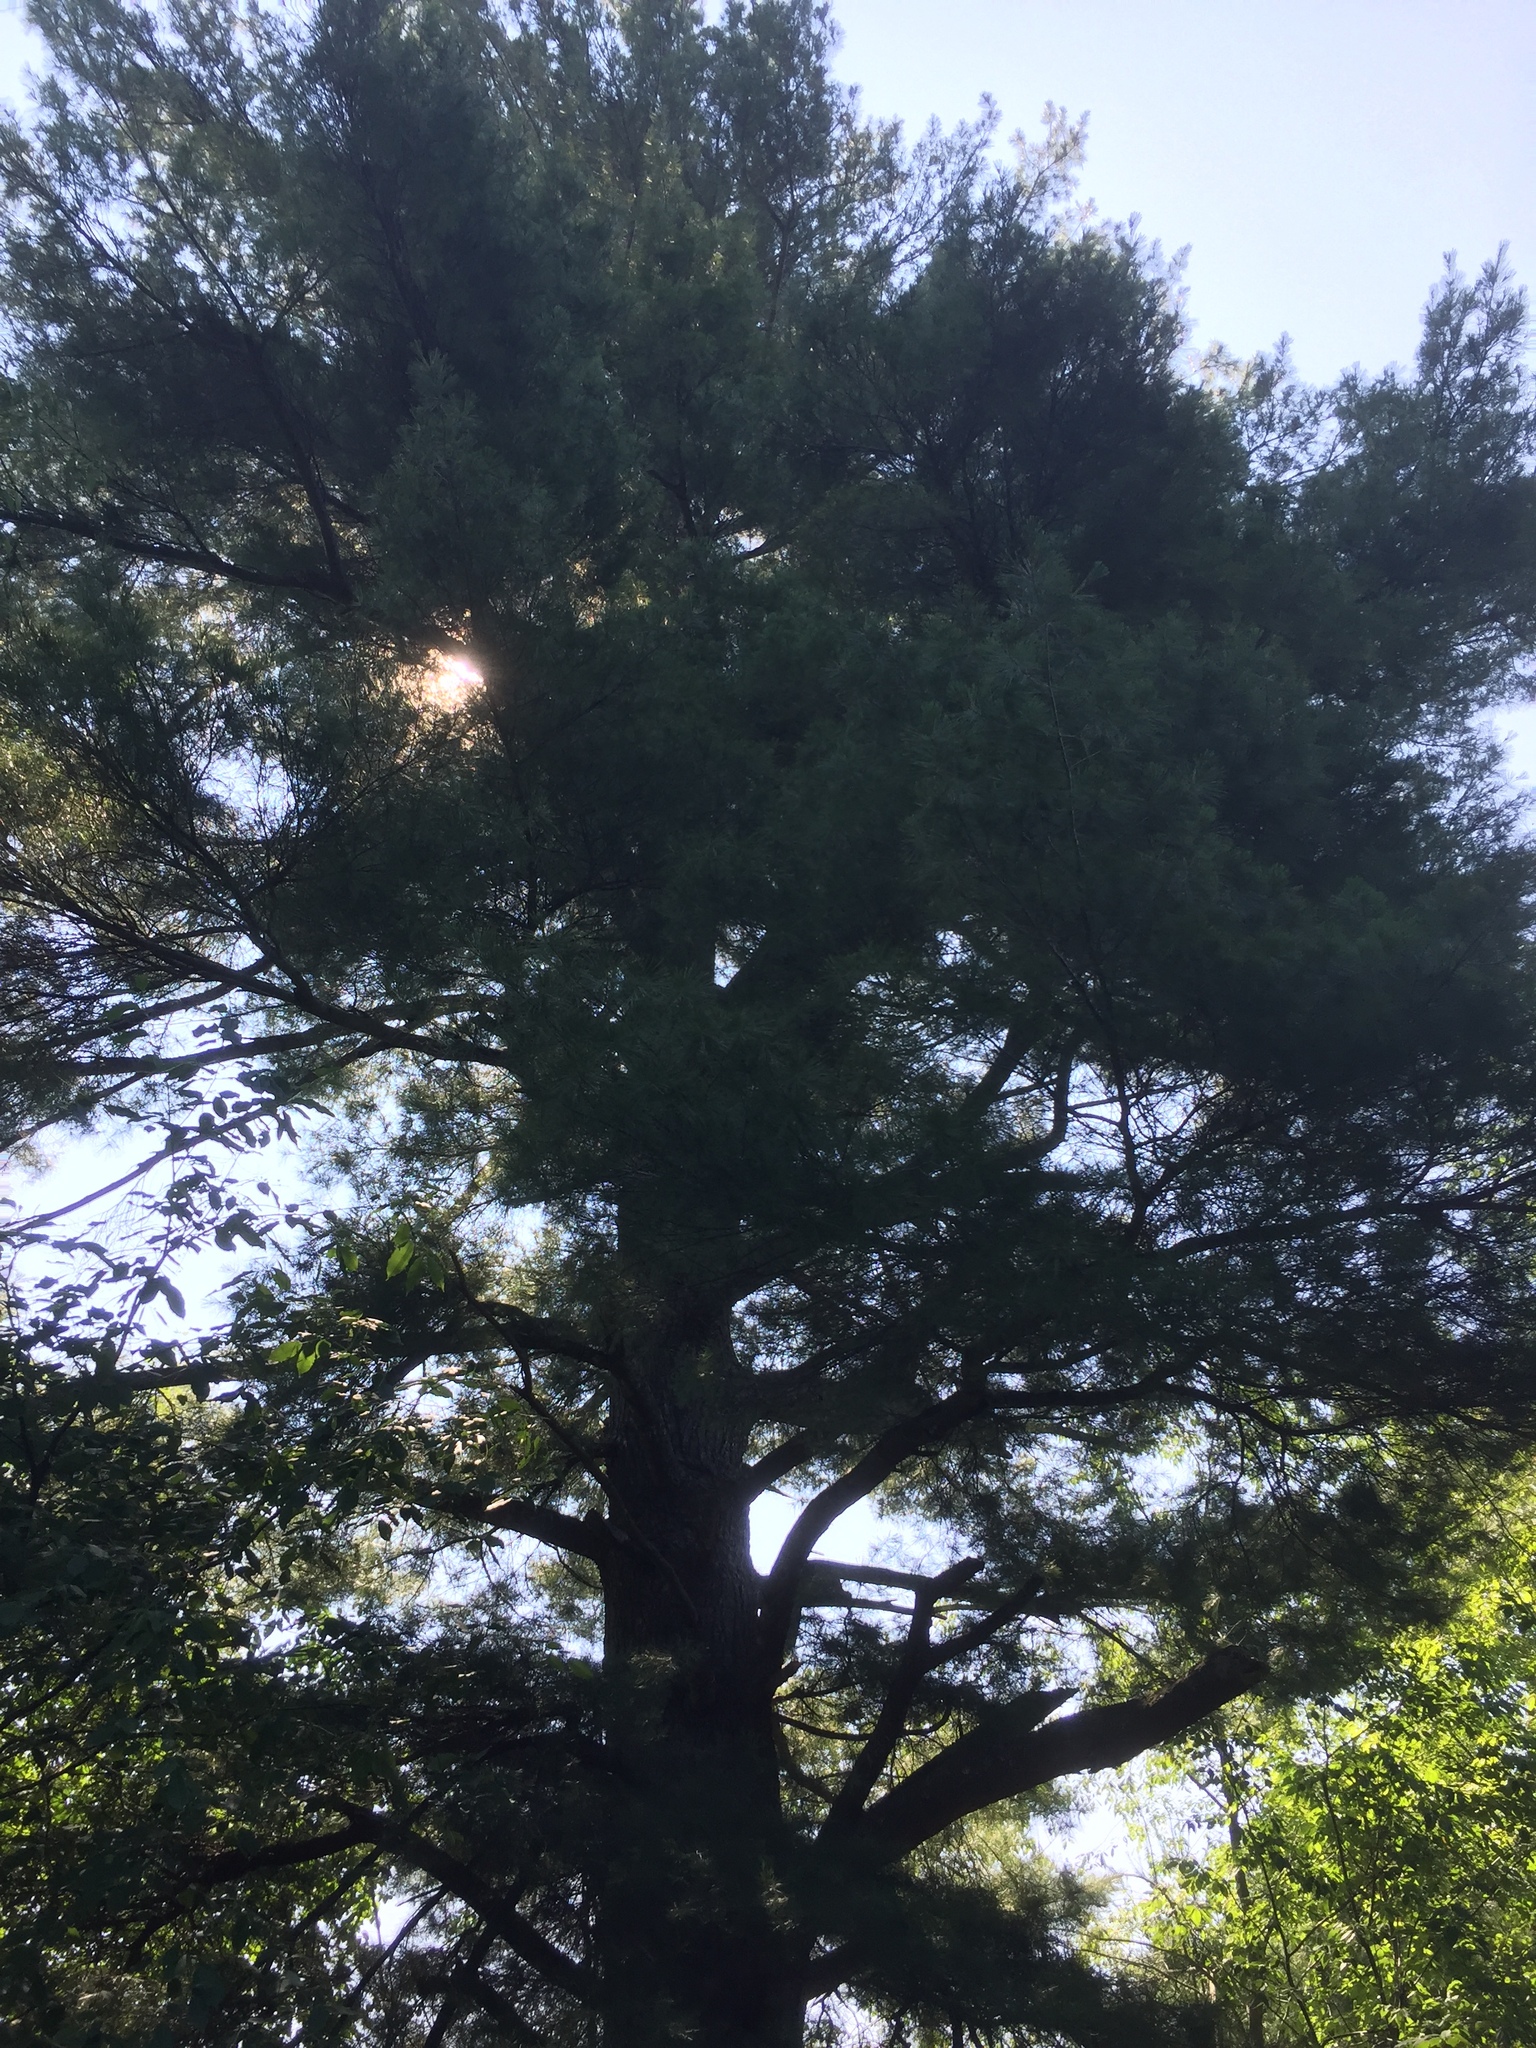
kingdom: Plantae
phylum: Tracheophyta
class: Pinopsida
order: Pinales
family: Pinaceae
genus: Pinus
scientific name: Pinus strobus
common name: Weymouth pine
